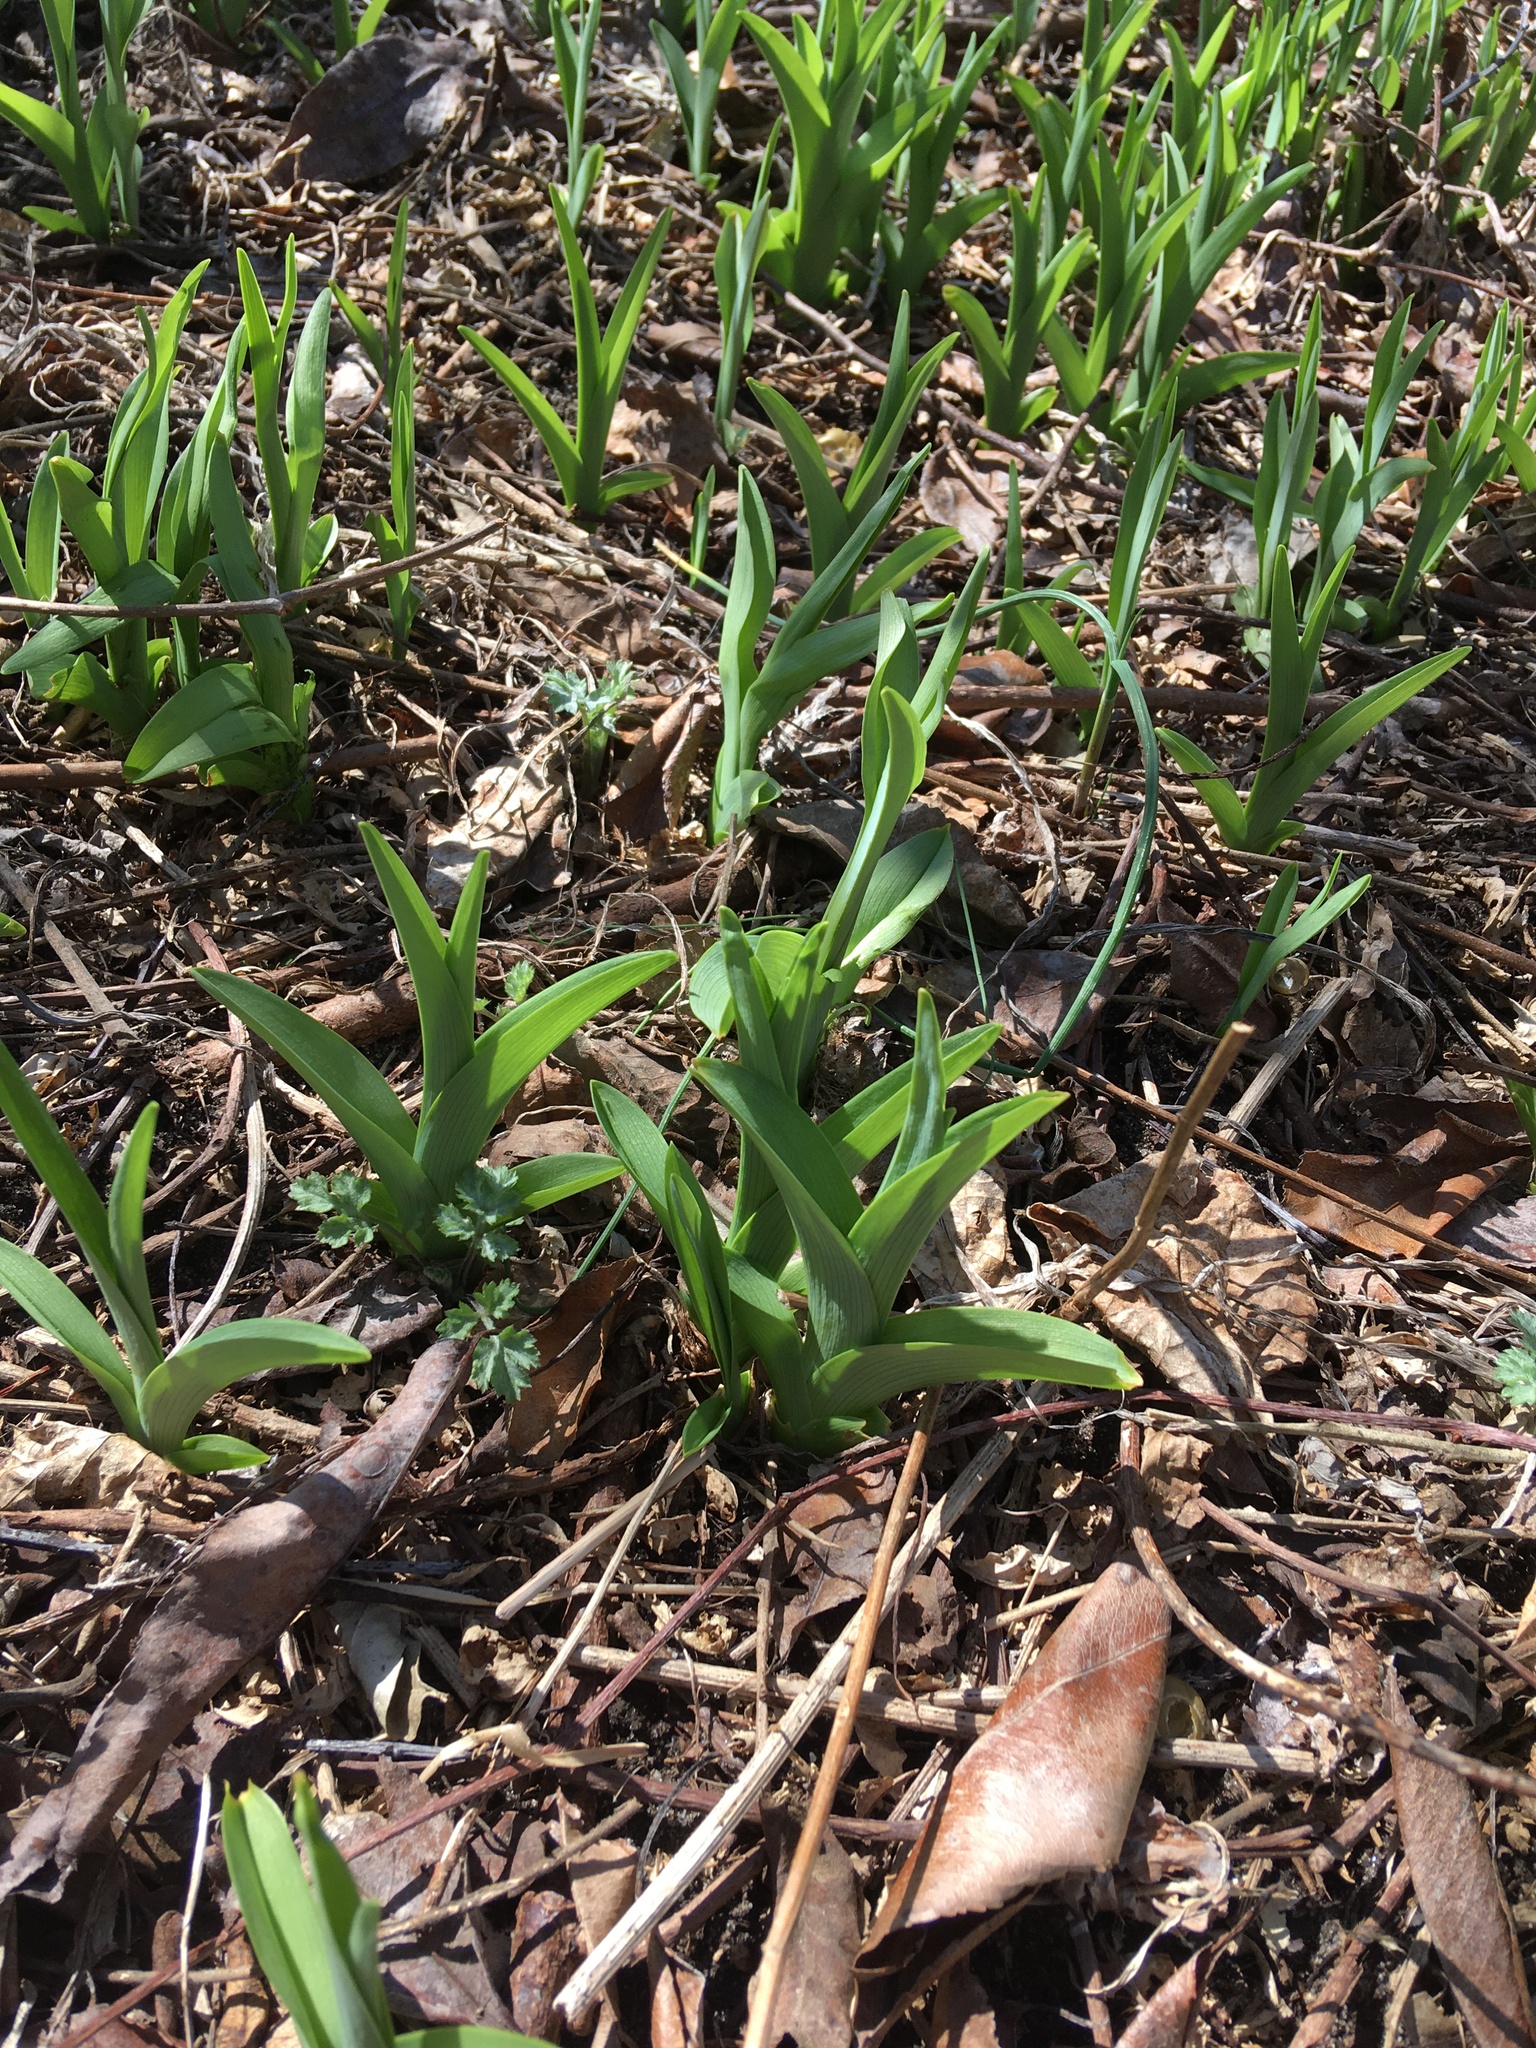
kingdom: Plantae
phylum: Tracheophyta
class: Liliopsida
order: Asparagales
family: Asphodelaceae
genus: Hemerocallis
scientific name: Hemerocallis fulva
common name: Orange day-lily
